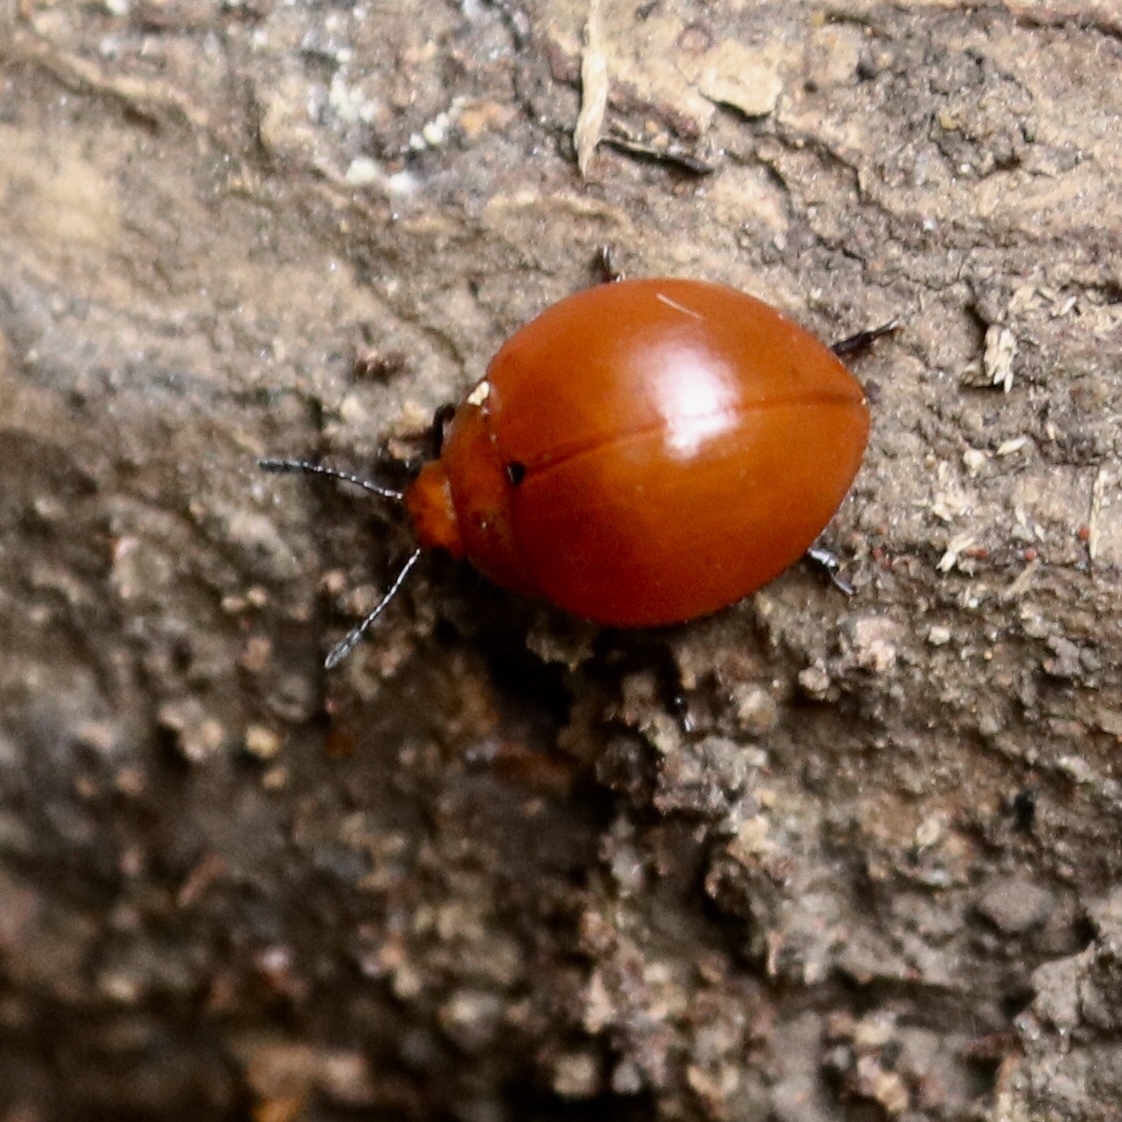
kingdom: Animalia
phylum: Arthropoda
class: Insecta
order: Coleoptera
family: Erotylidae
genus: Aegithus
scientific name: Aegithus
